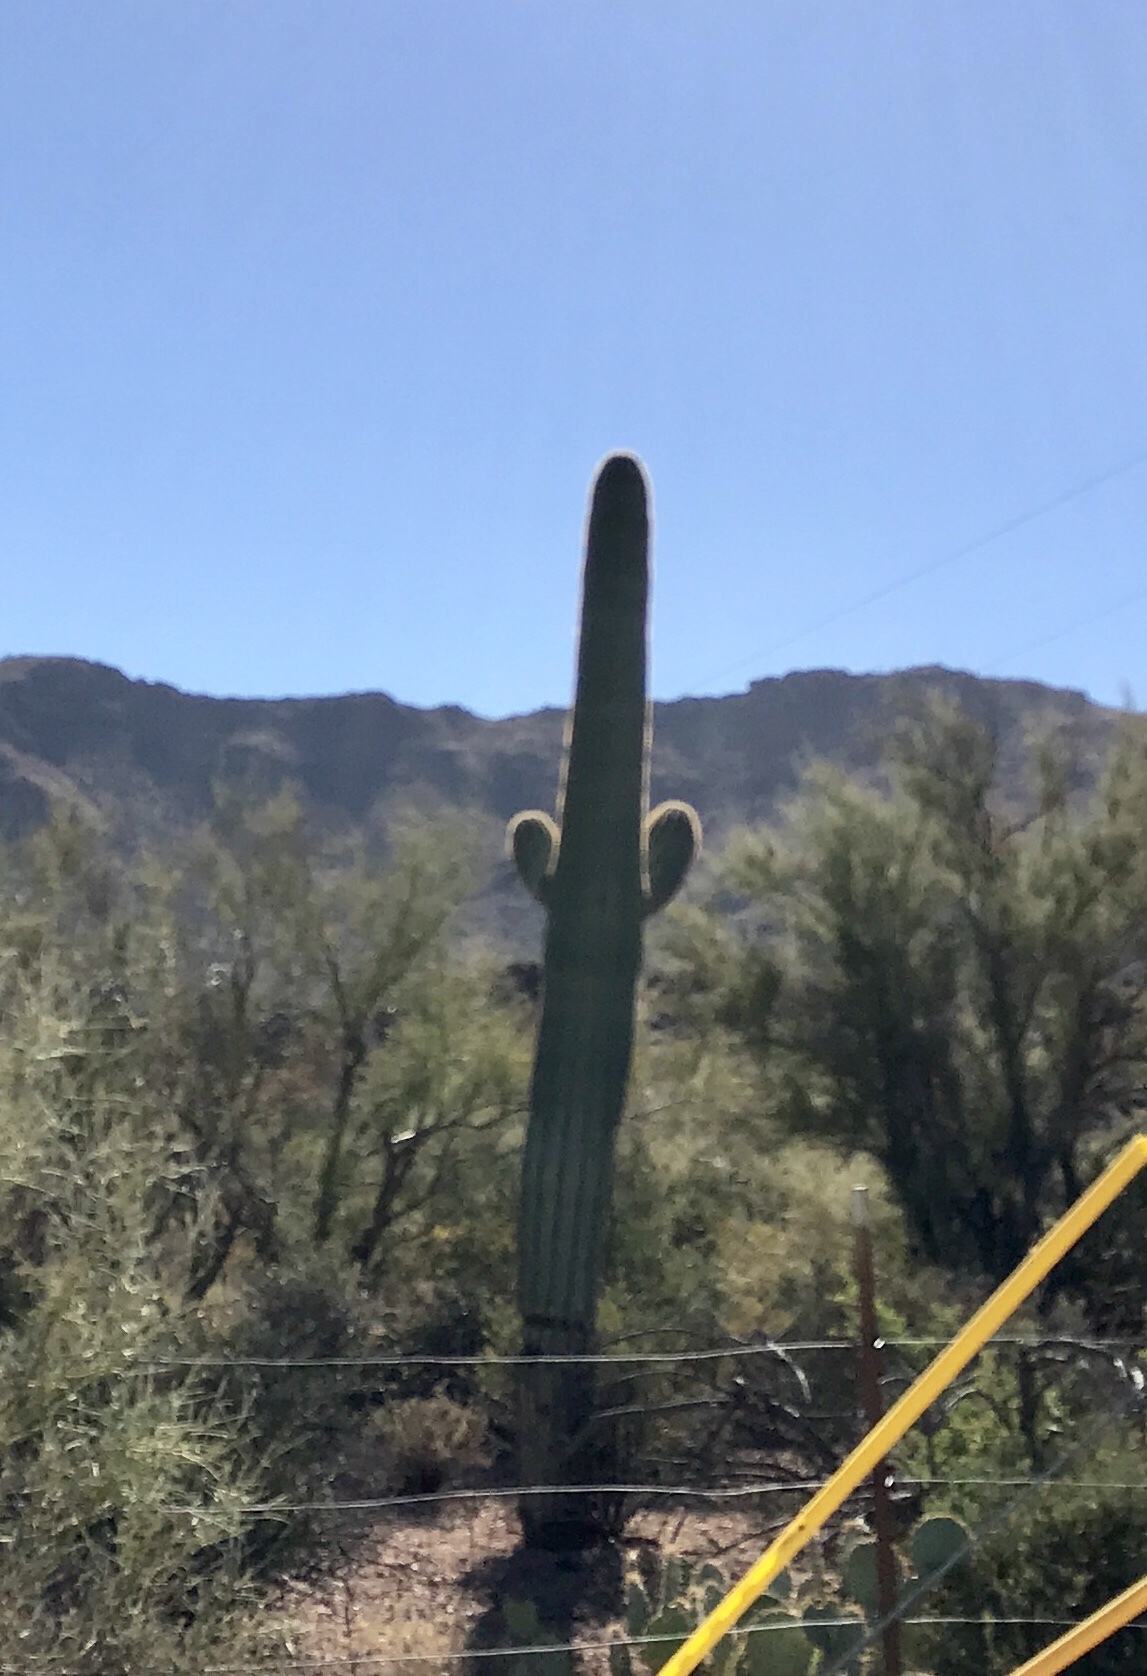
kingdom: Plantae
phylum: Tracheophyta
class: Magnoliopsida
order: Caryophyllales
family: Cactaceae
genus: Carnegiea
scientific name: Carnegiea gigantea
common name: Saguaro
